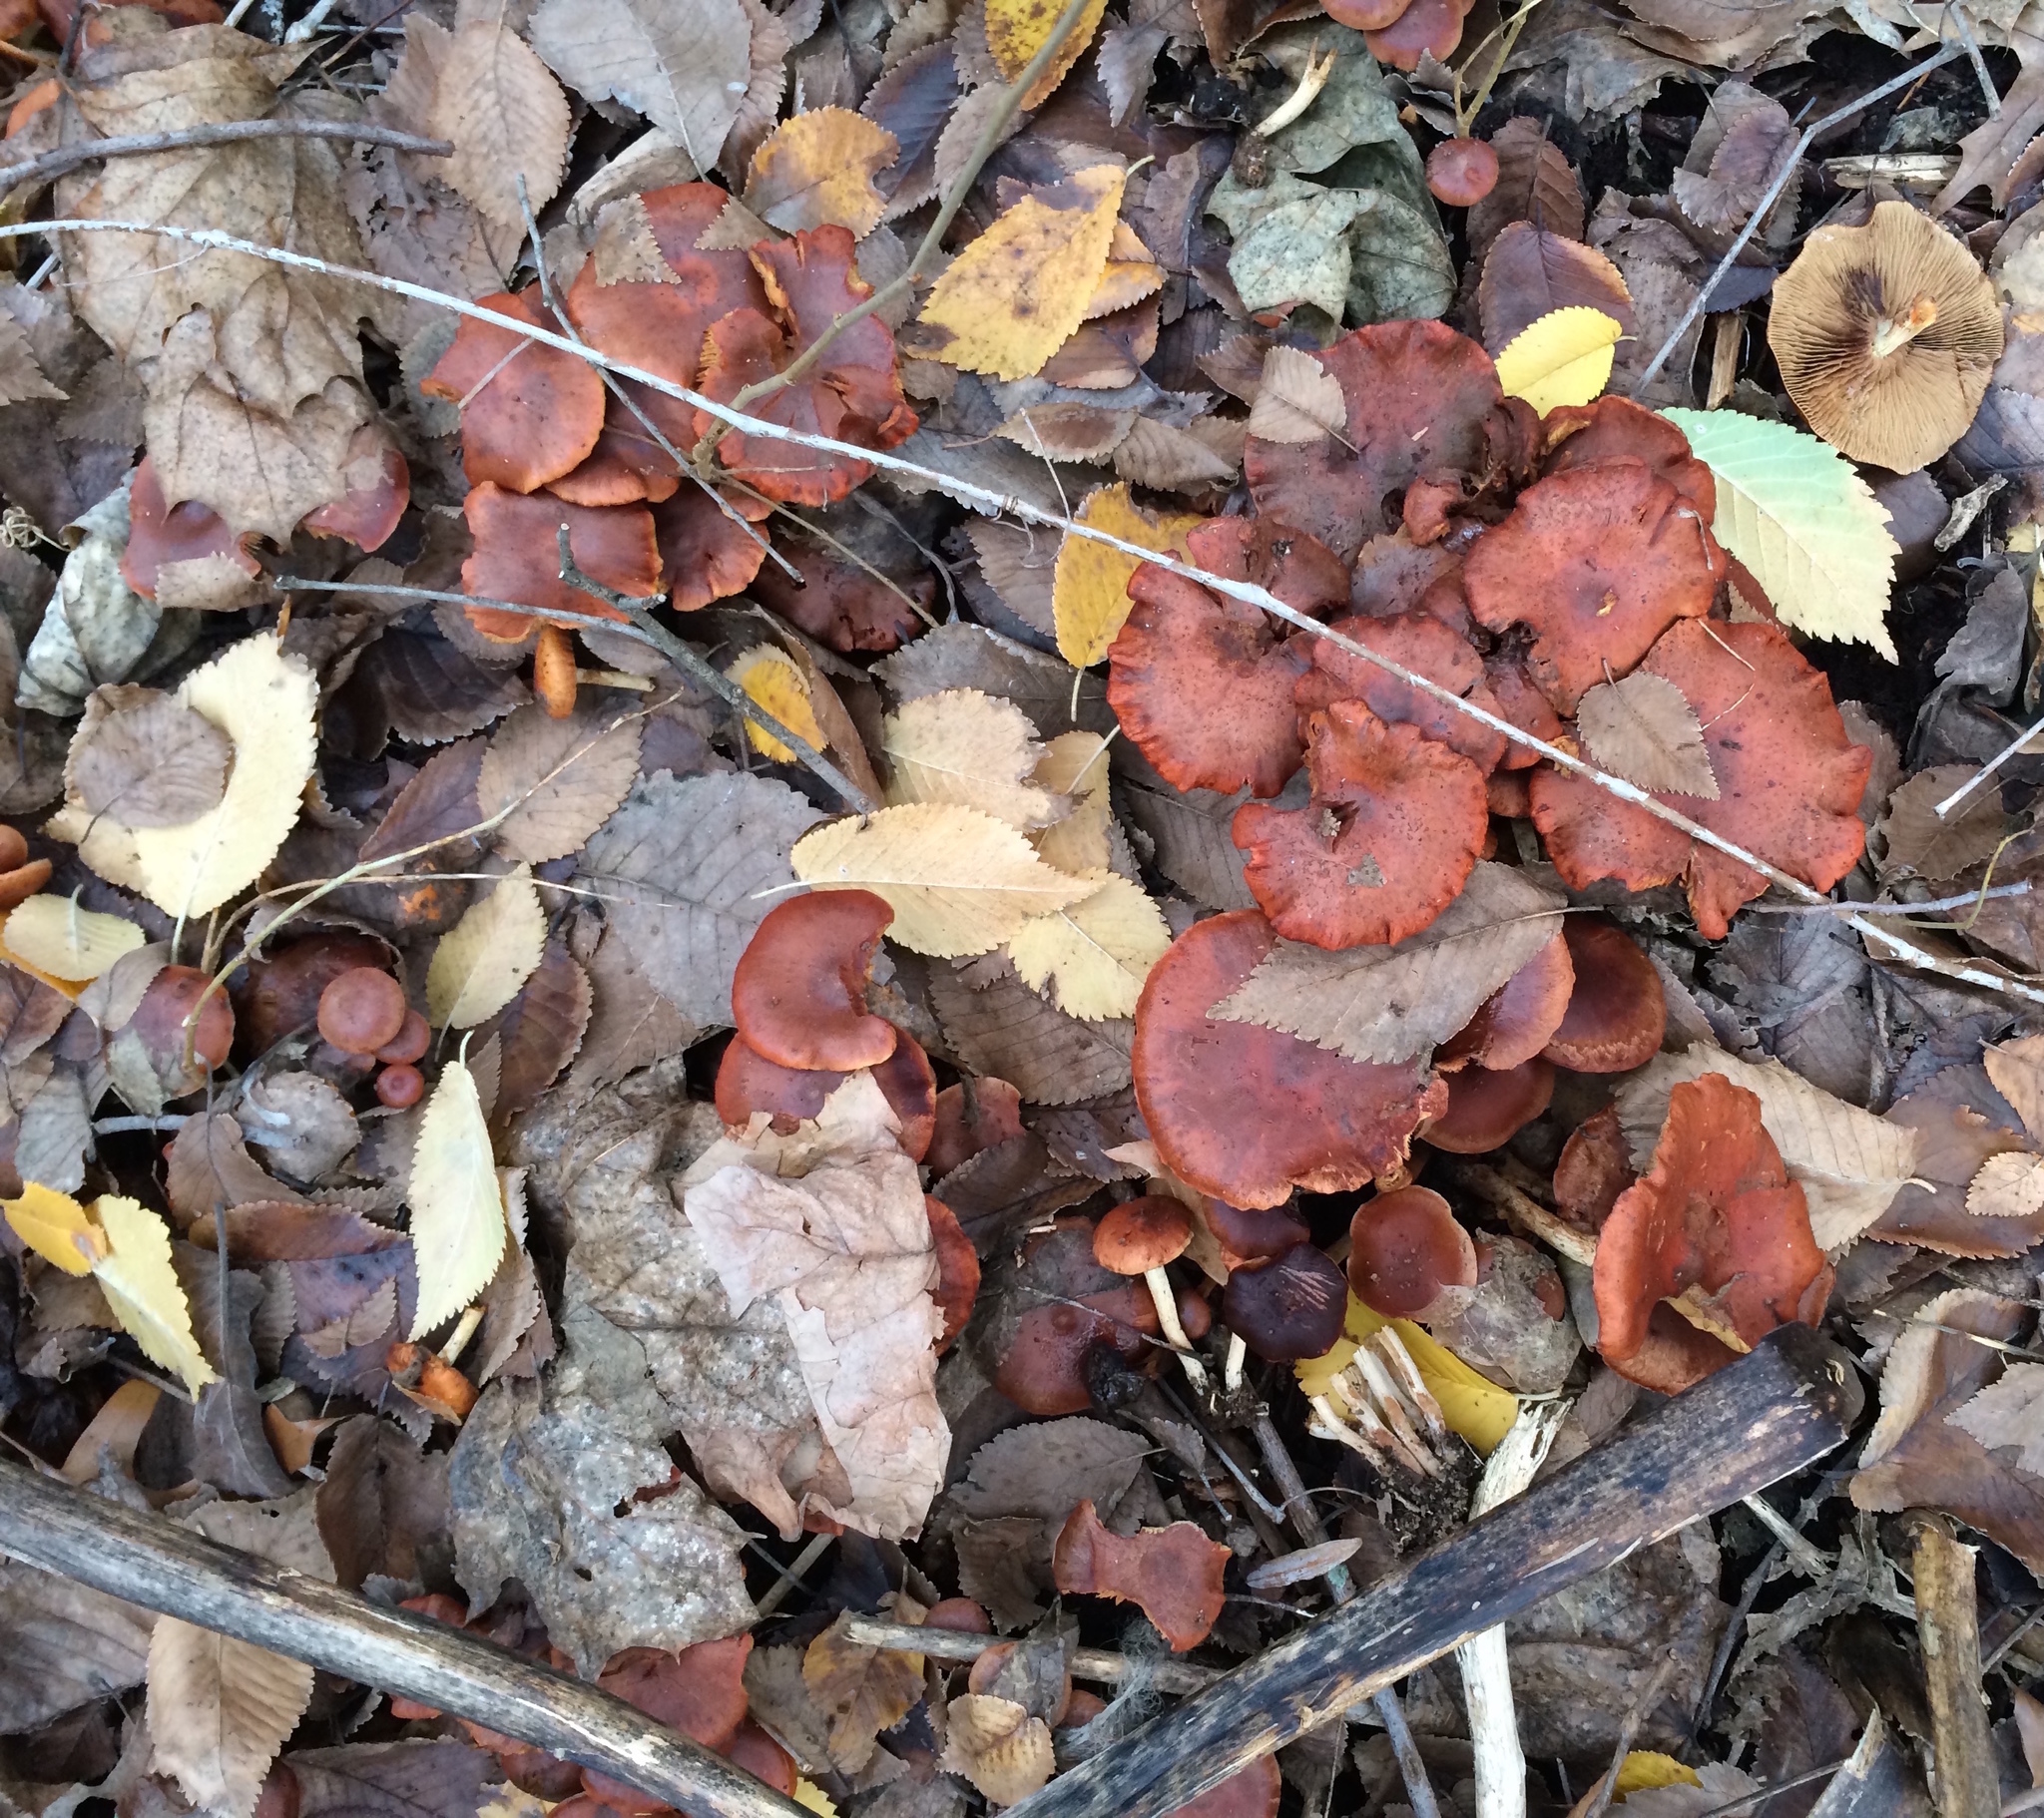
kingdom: Fungi
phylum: Basidiomycota
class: Agaricomycetes
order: Agaricales
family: Strophariaceae
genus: Hypholoma
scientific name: Hypholoma lateritium
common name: Brick caps
